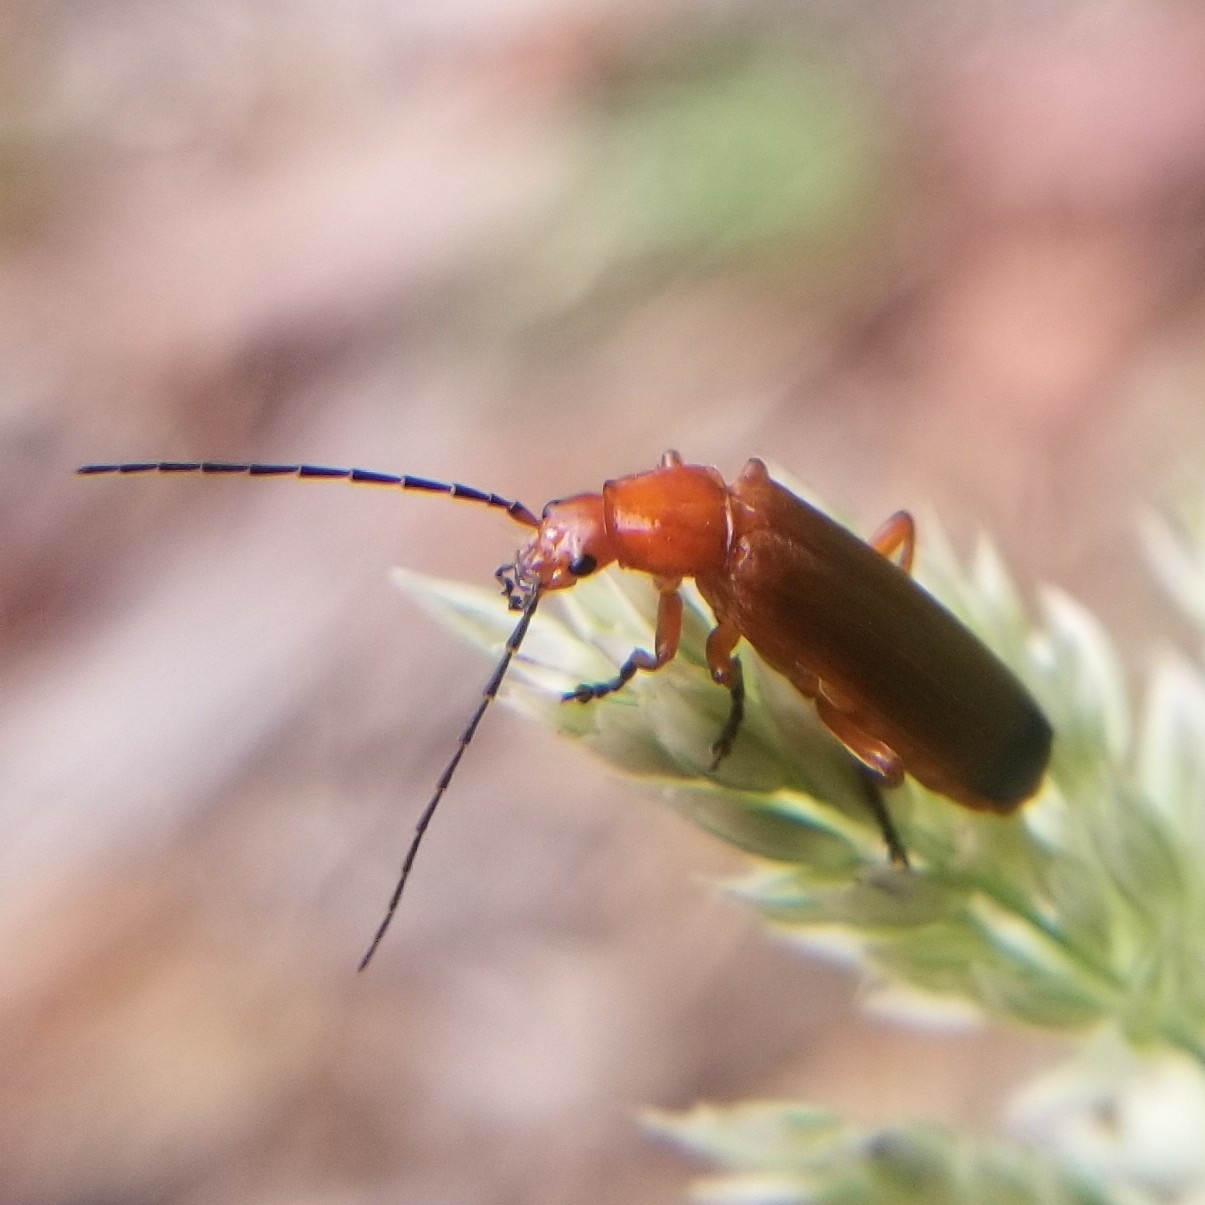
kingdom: Animalia
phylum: Arthropoda
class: Insecta
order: Coleoptera
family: Cantharidae
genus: Rhagonycha
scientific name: Rhagonycha fulva
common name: Common red soldier beetle
